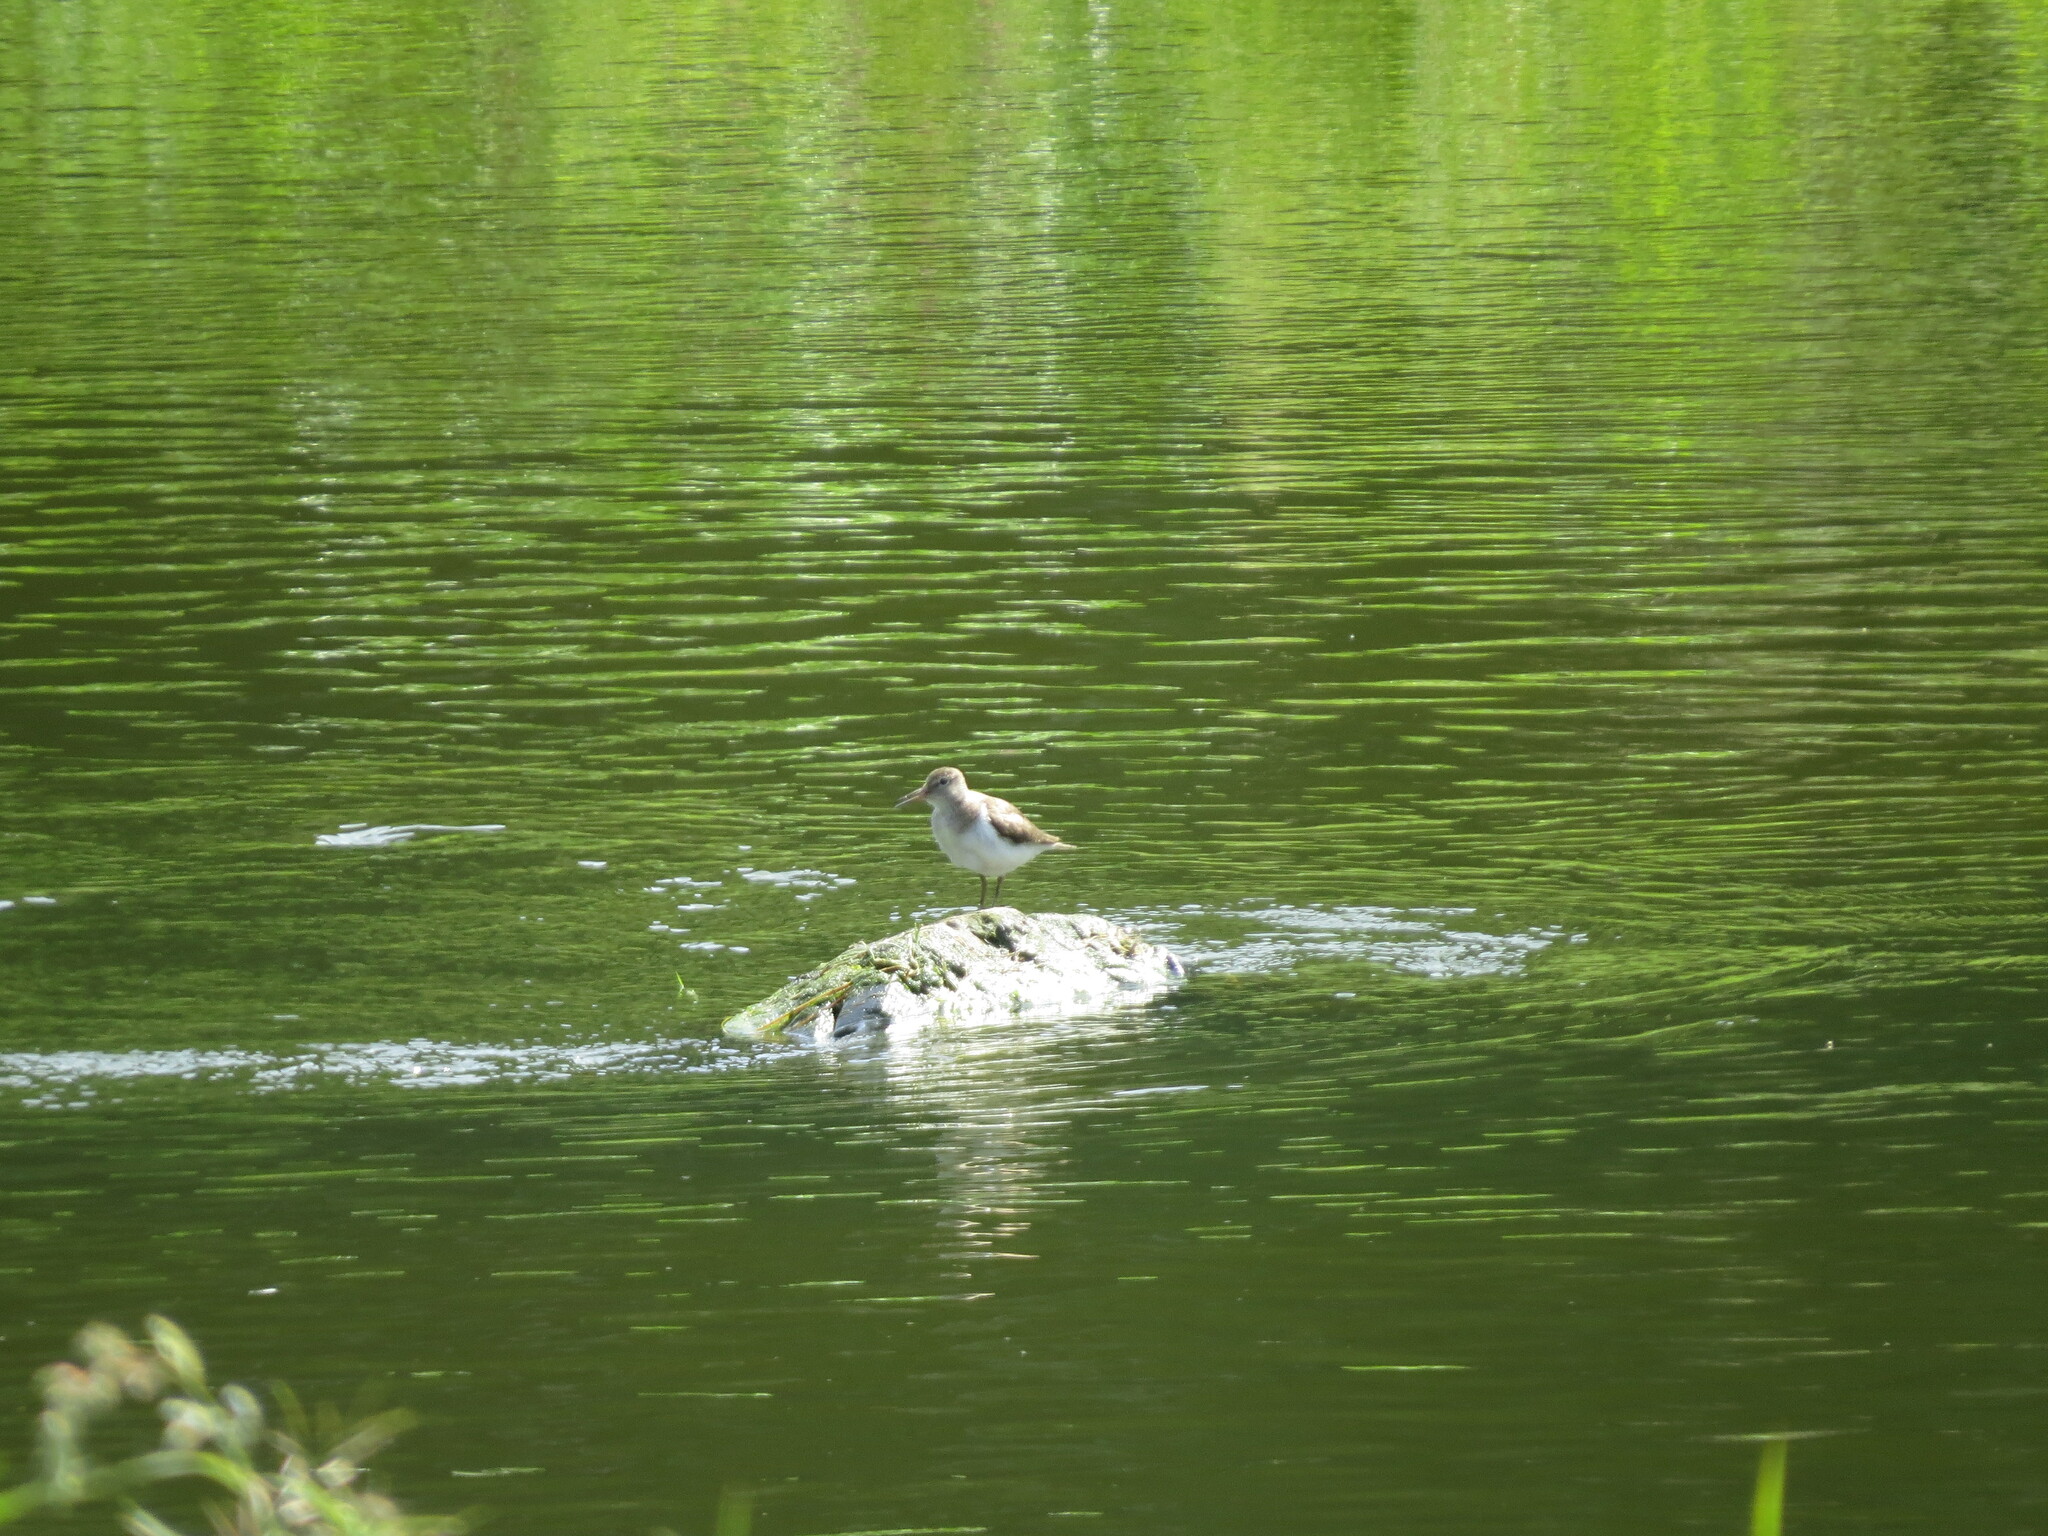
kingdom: Animalia
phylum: Chordata
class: Aves
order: Charadriiformes
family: Scolopacidae
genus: Actitis
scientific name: Actitis hypoleucos
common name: Common sandpiper
